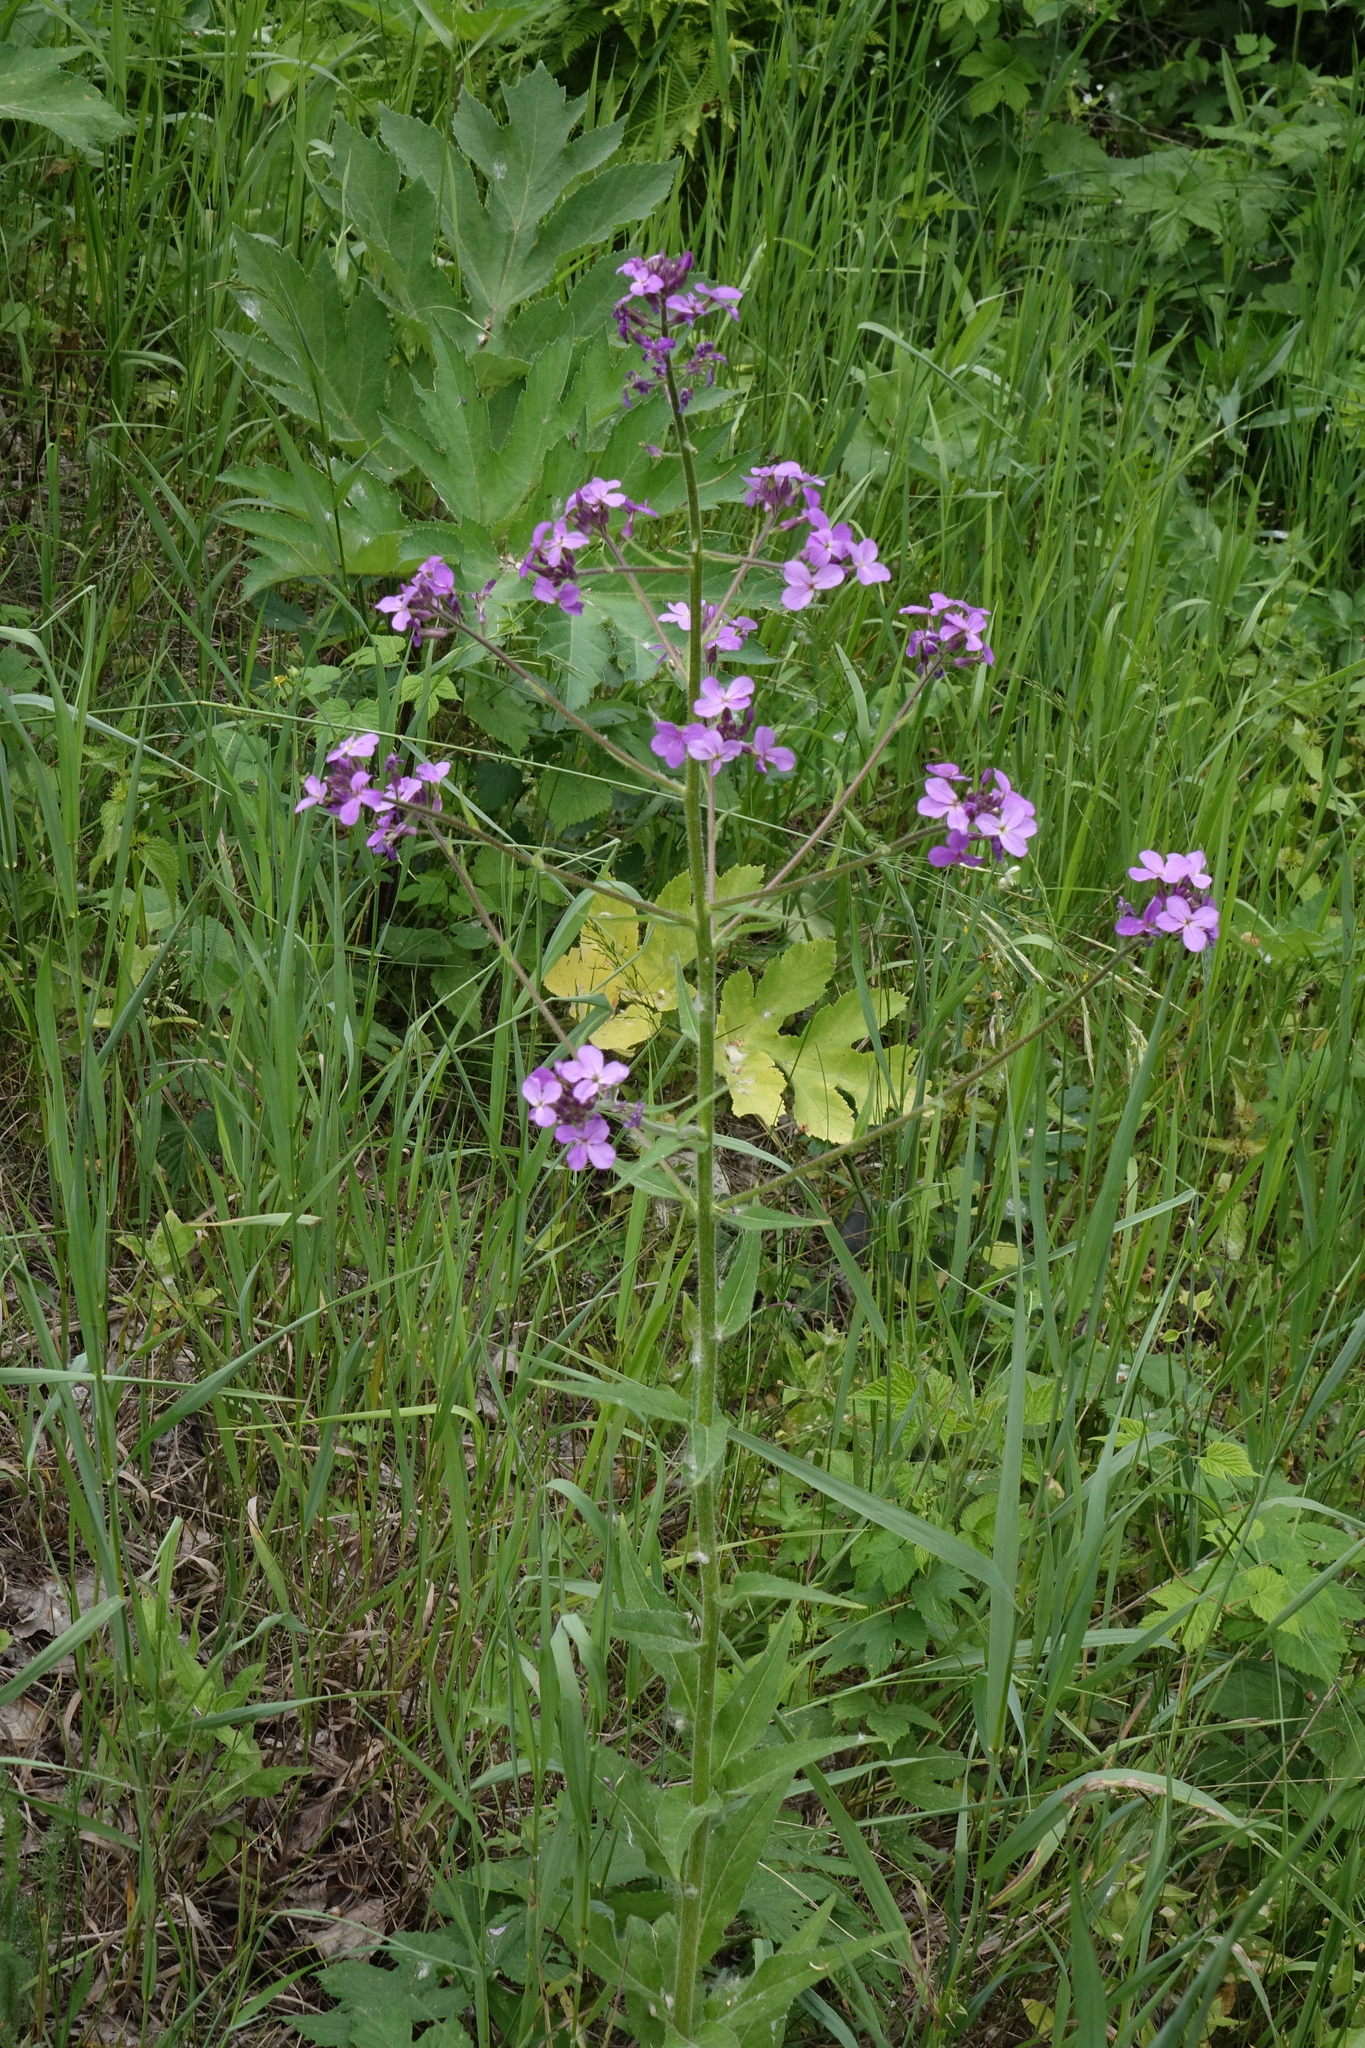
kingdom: Plantae
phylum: Tracheophyta
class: Magnoliopsida
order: Brassicales
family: Brassicaceae
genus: Hesperis
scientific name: Hesperis sibirica
